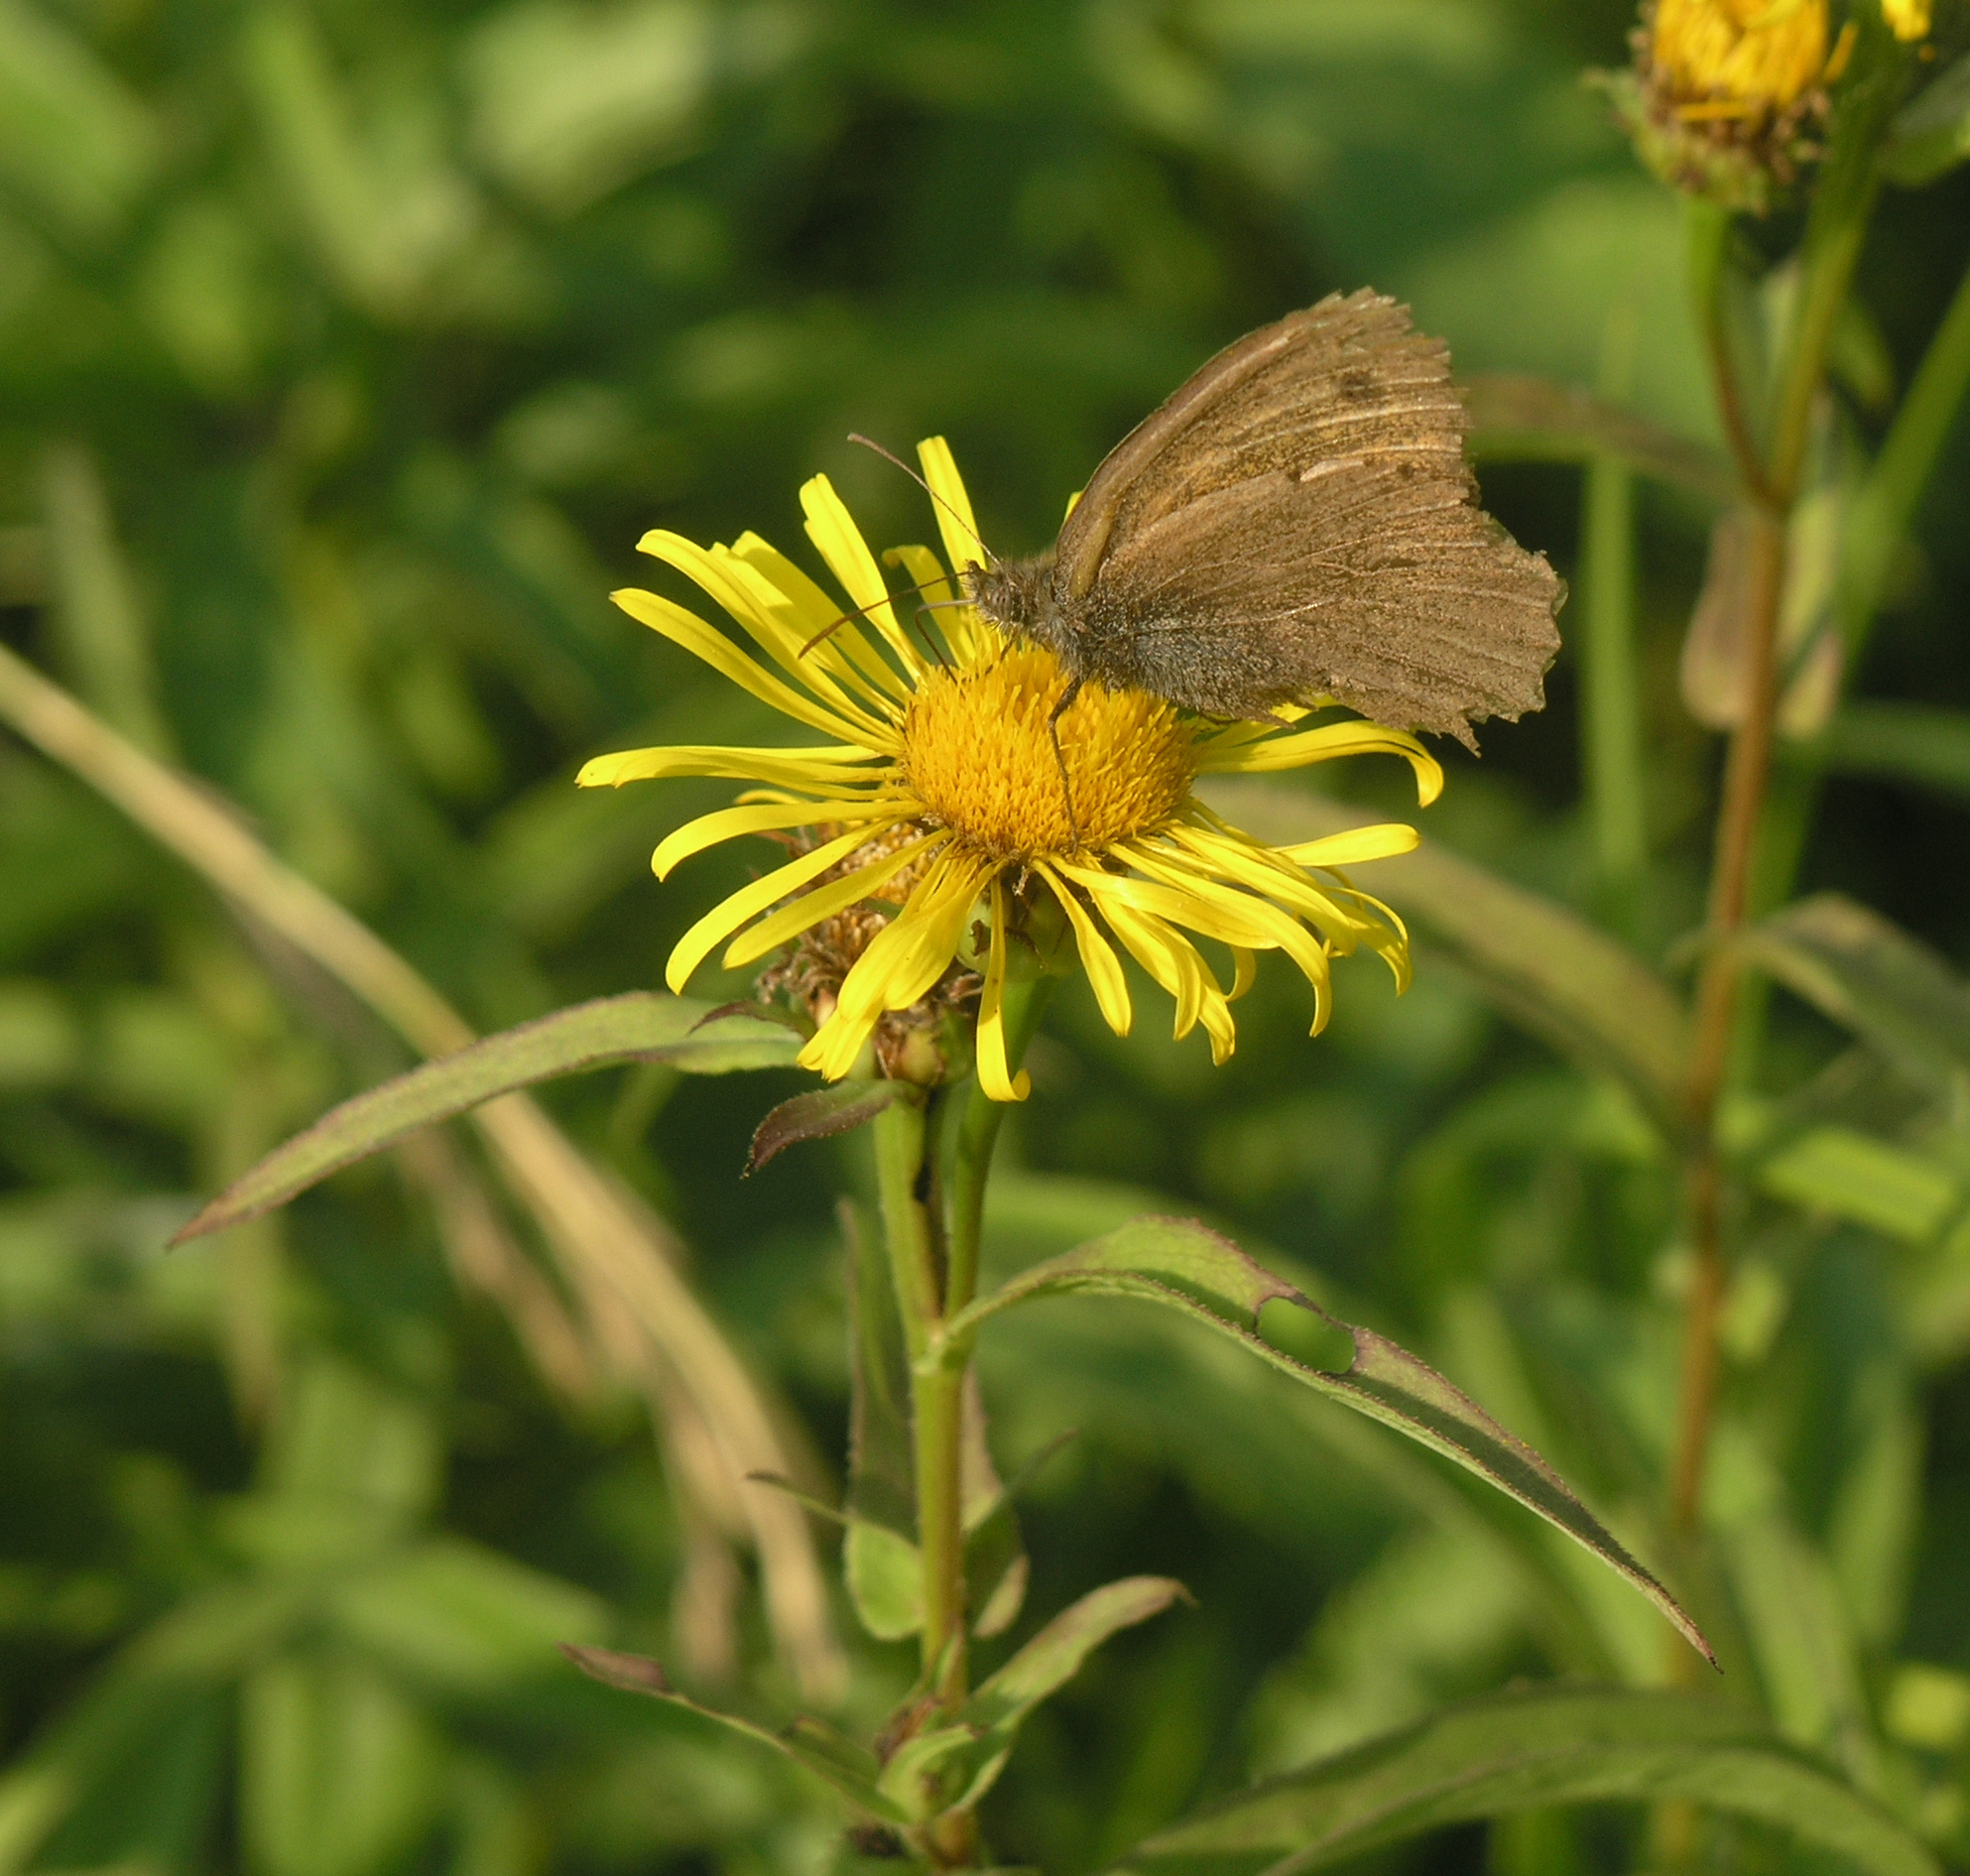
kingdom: Animalia
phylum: Arthropoda
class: Insecta
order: Lepidoptera
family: Nymphalidae
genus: Hyponephele
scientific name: Hyponephele lycaon
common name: Dusky meadow brown
